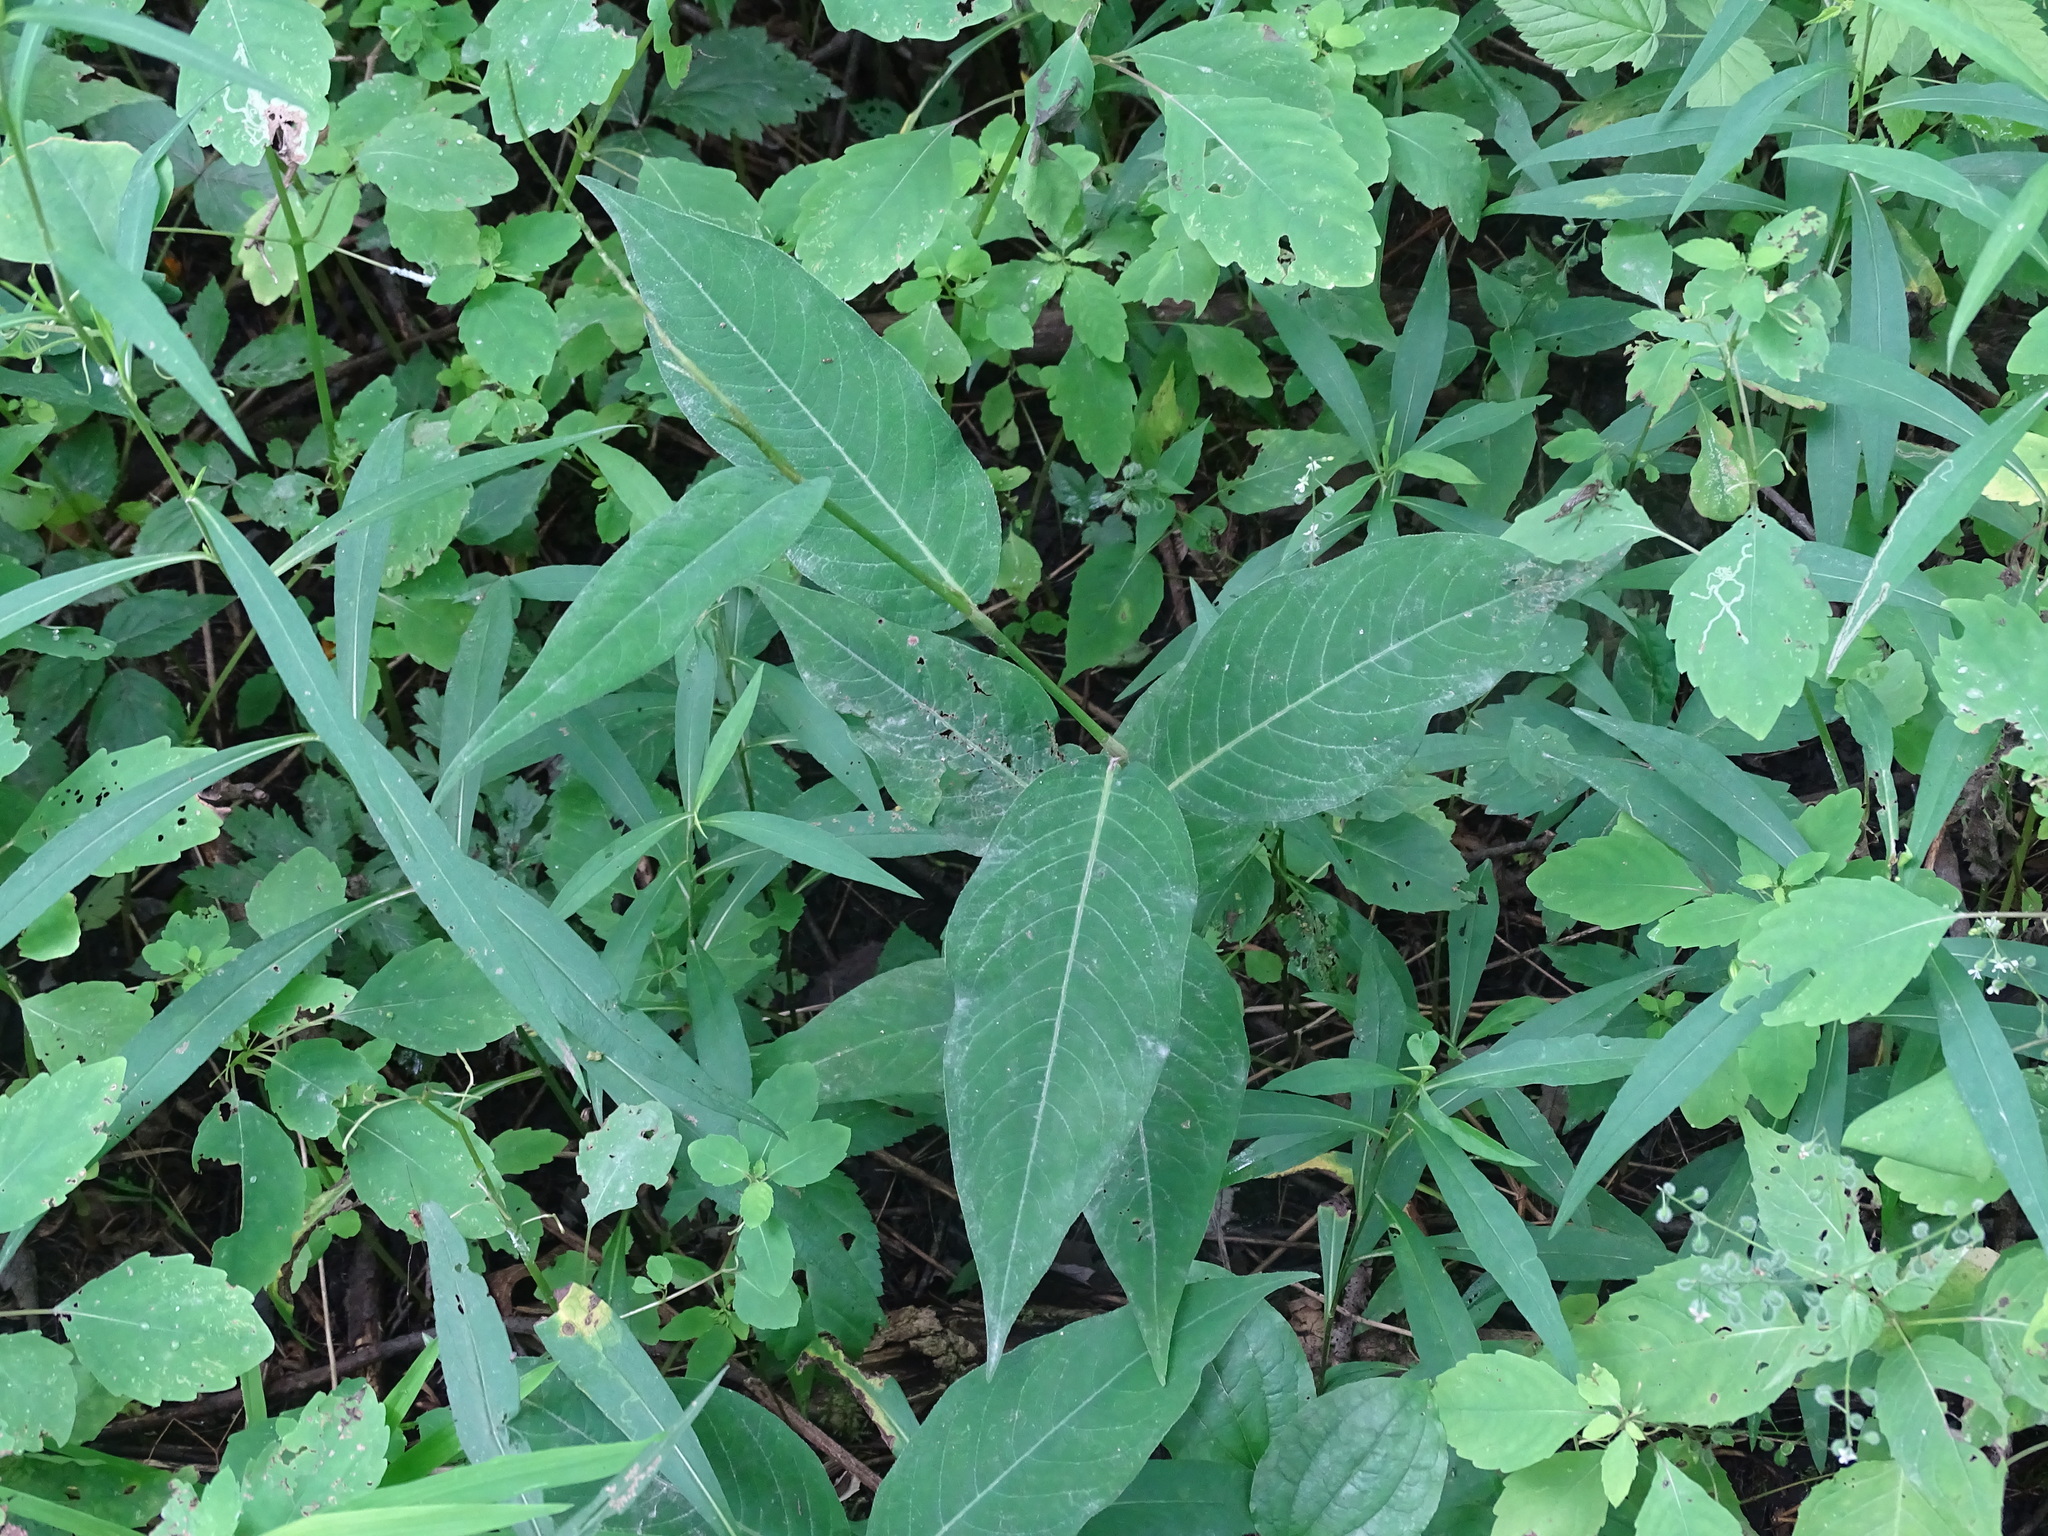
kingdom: Plantae
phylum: Tracheophyta
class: Magnoliopsida
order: Caryophyllales
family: Polygonaceae
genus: Persicaria
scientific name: Persicaria virginiana
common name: Jumpseed
